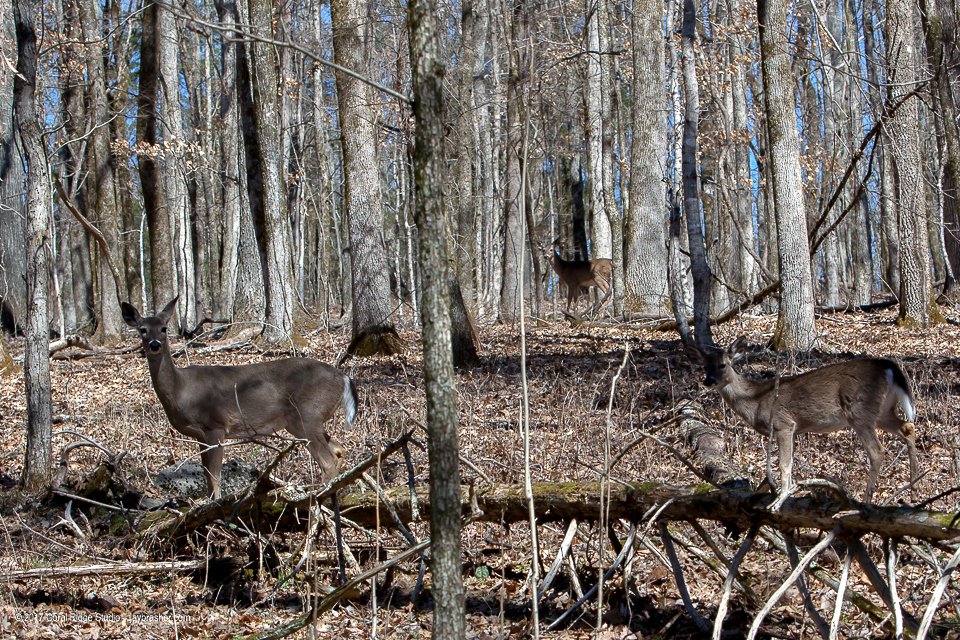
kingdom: Animalia
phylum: Chordata
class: Mammalia
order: Artiodactyla
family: Cervidae
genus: Odocoileus
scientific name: Odocoileus virginianus
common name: White-tailed deer
